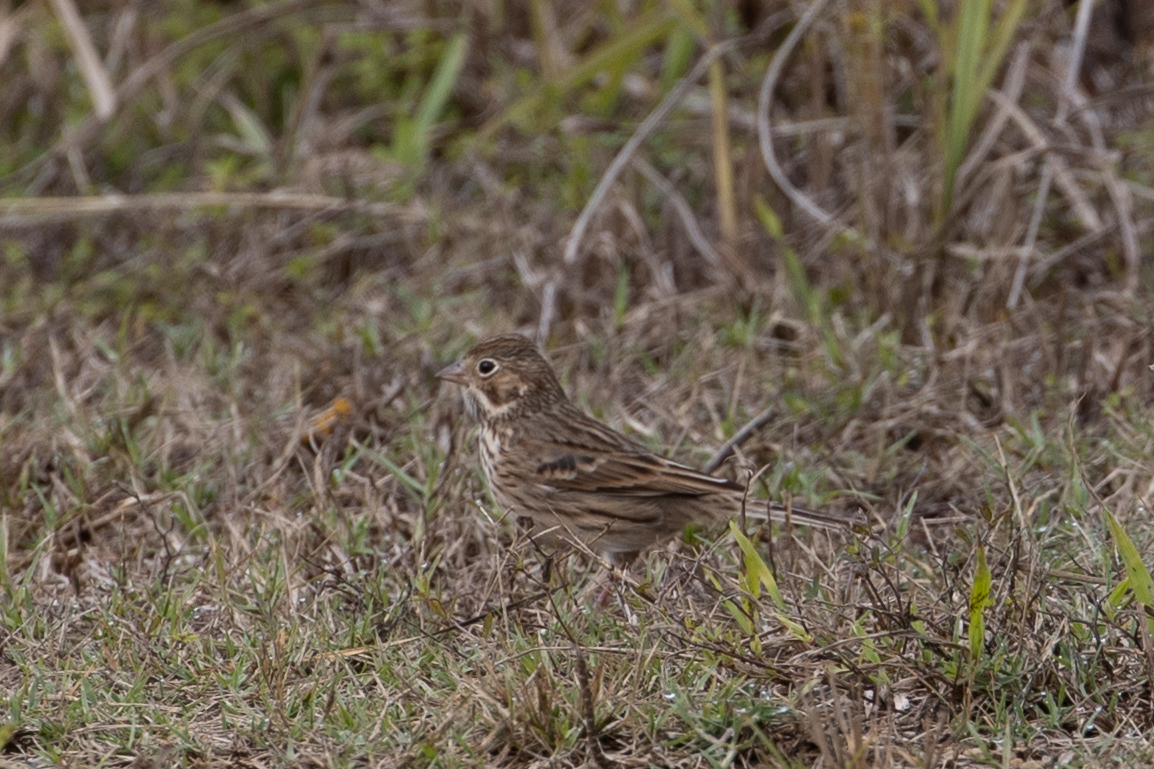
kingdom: Animalia
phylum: Chordata
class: Aves
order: Passeriformes
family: Passerellidae
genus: Pooecetes
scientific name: Pooecetes gramineus
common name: Vesper sparrow
